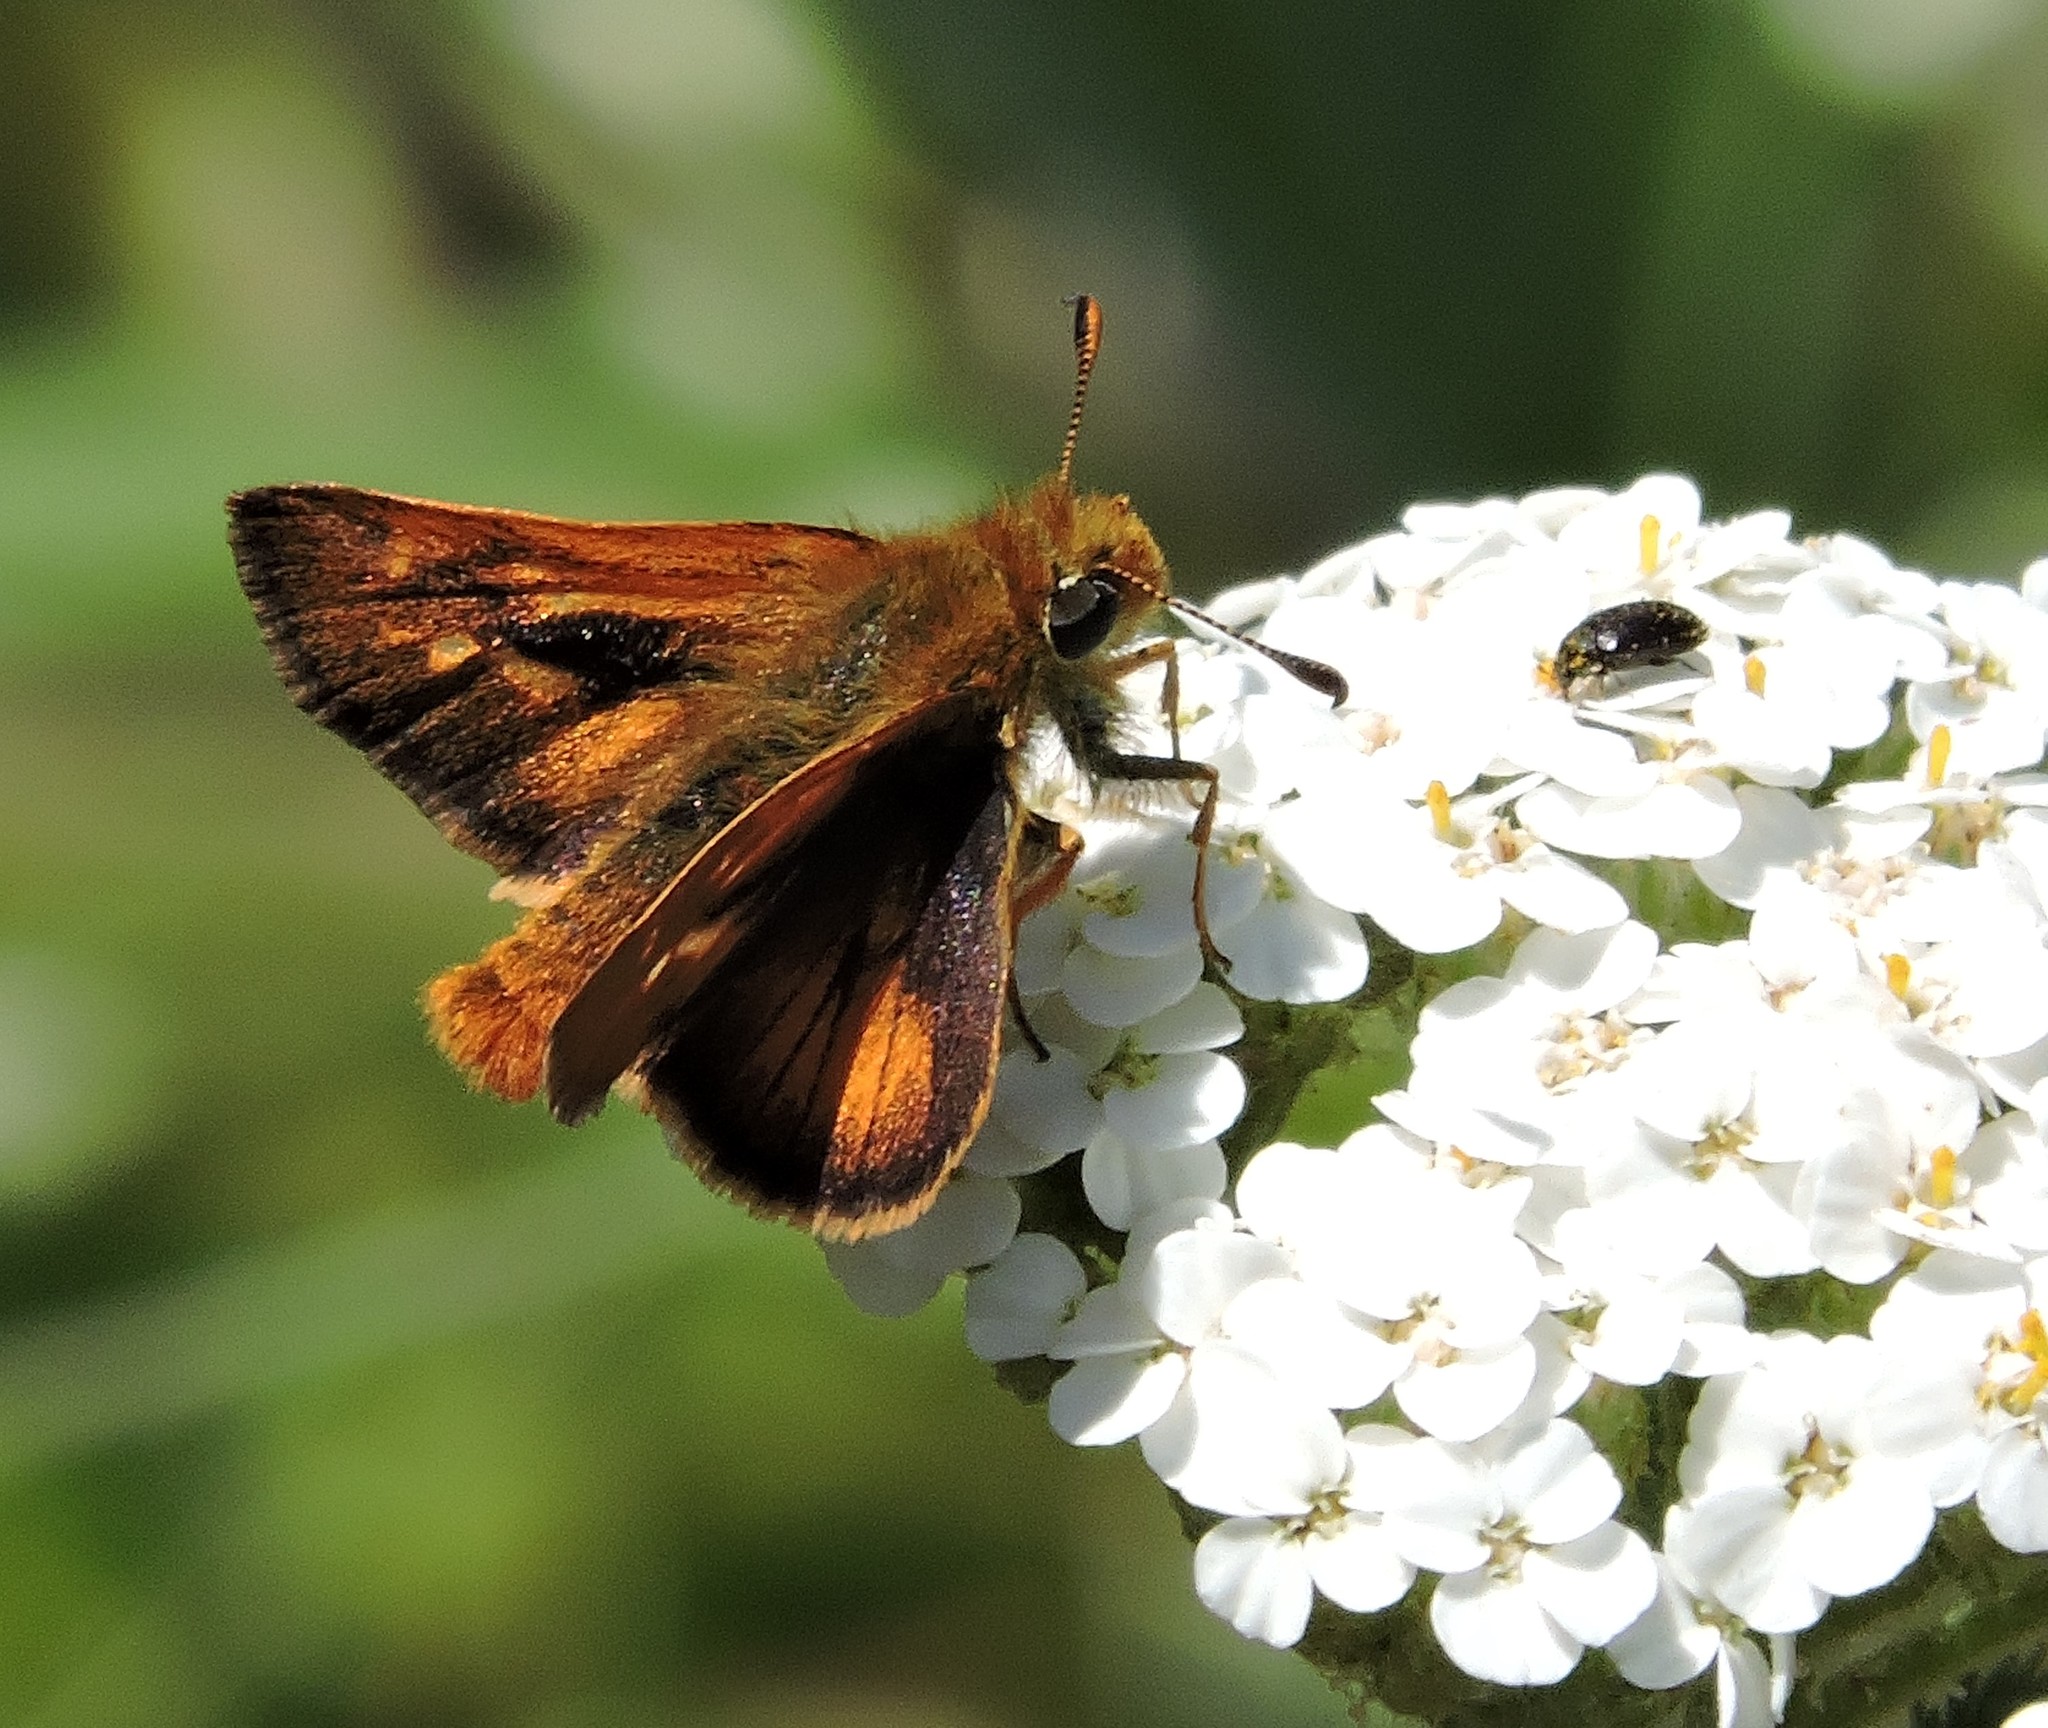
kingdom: Animalia
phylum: Arthropoda
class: Insecta
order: Lepidoptera
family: Hesperiidae
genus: Ochlodes
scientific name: Ochlodes agricola
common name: Rural skipper
